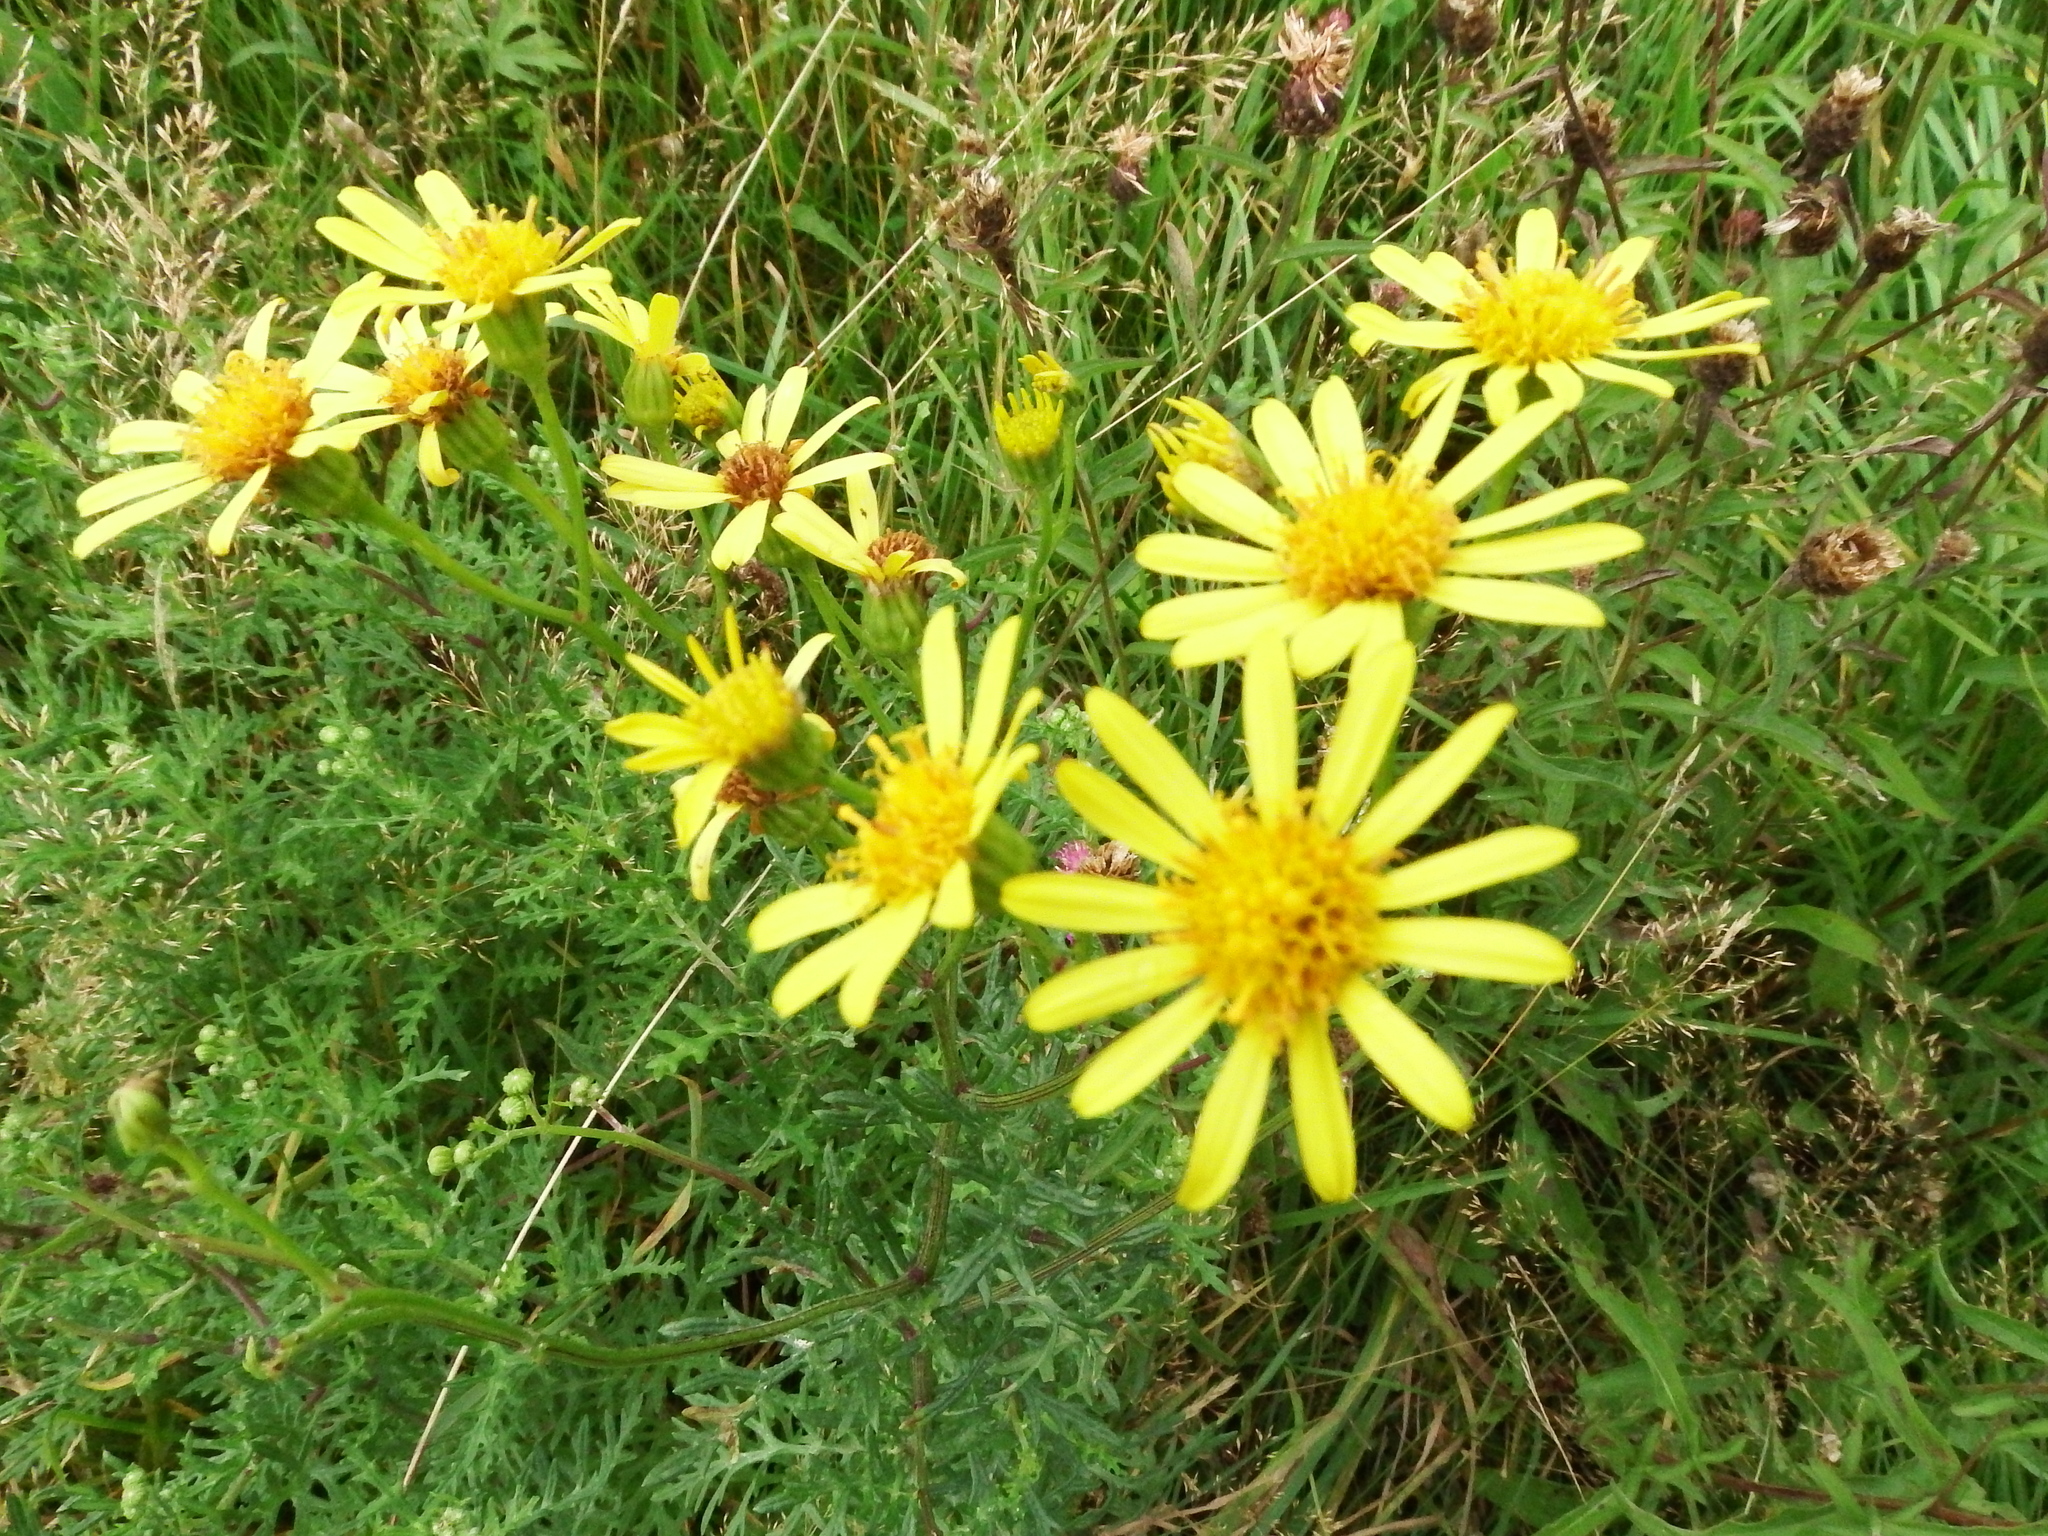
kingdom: Plantae
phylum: Tracheophyta
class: Magnoliopsida
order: Asterales
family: Asteraceae
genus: Jacobaea
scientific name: Jacobaea erucifolia
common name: Hoary ragwort
